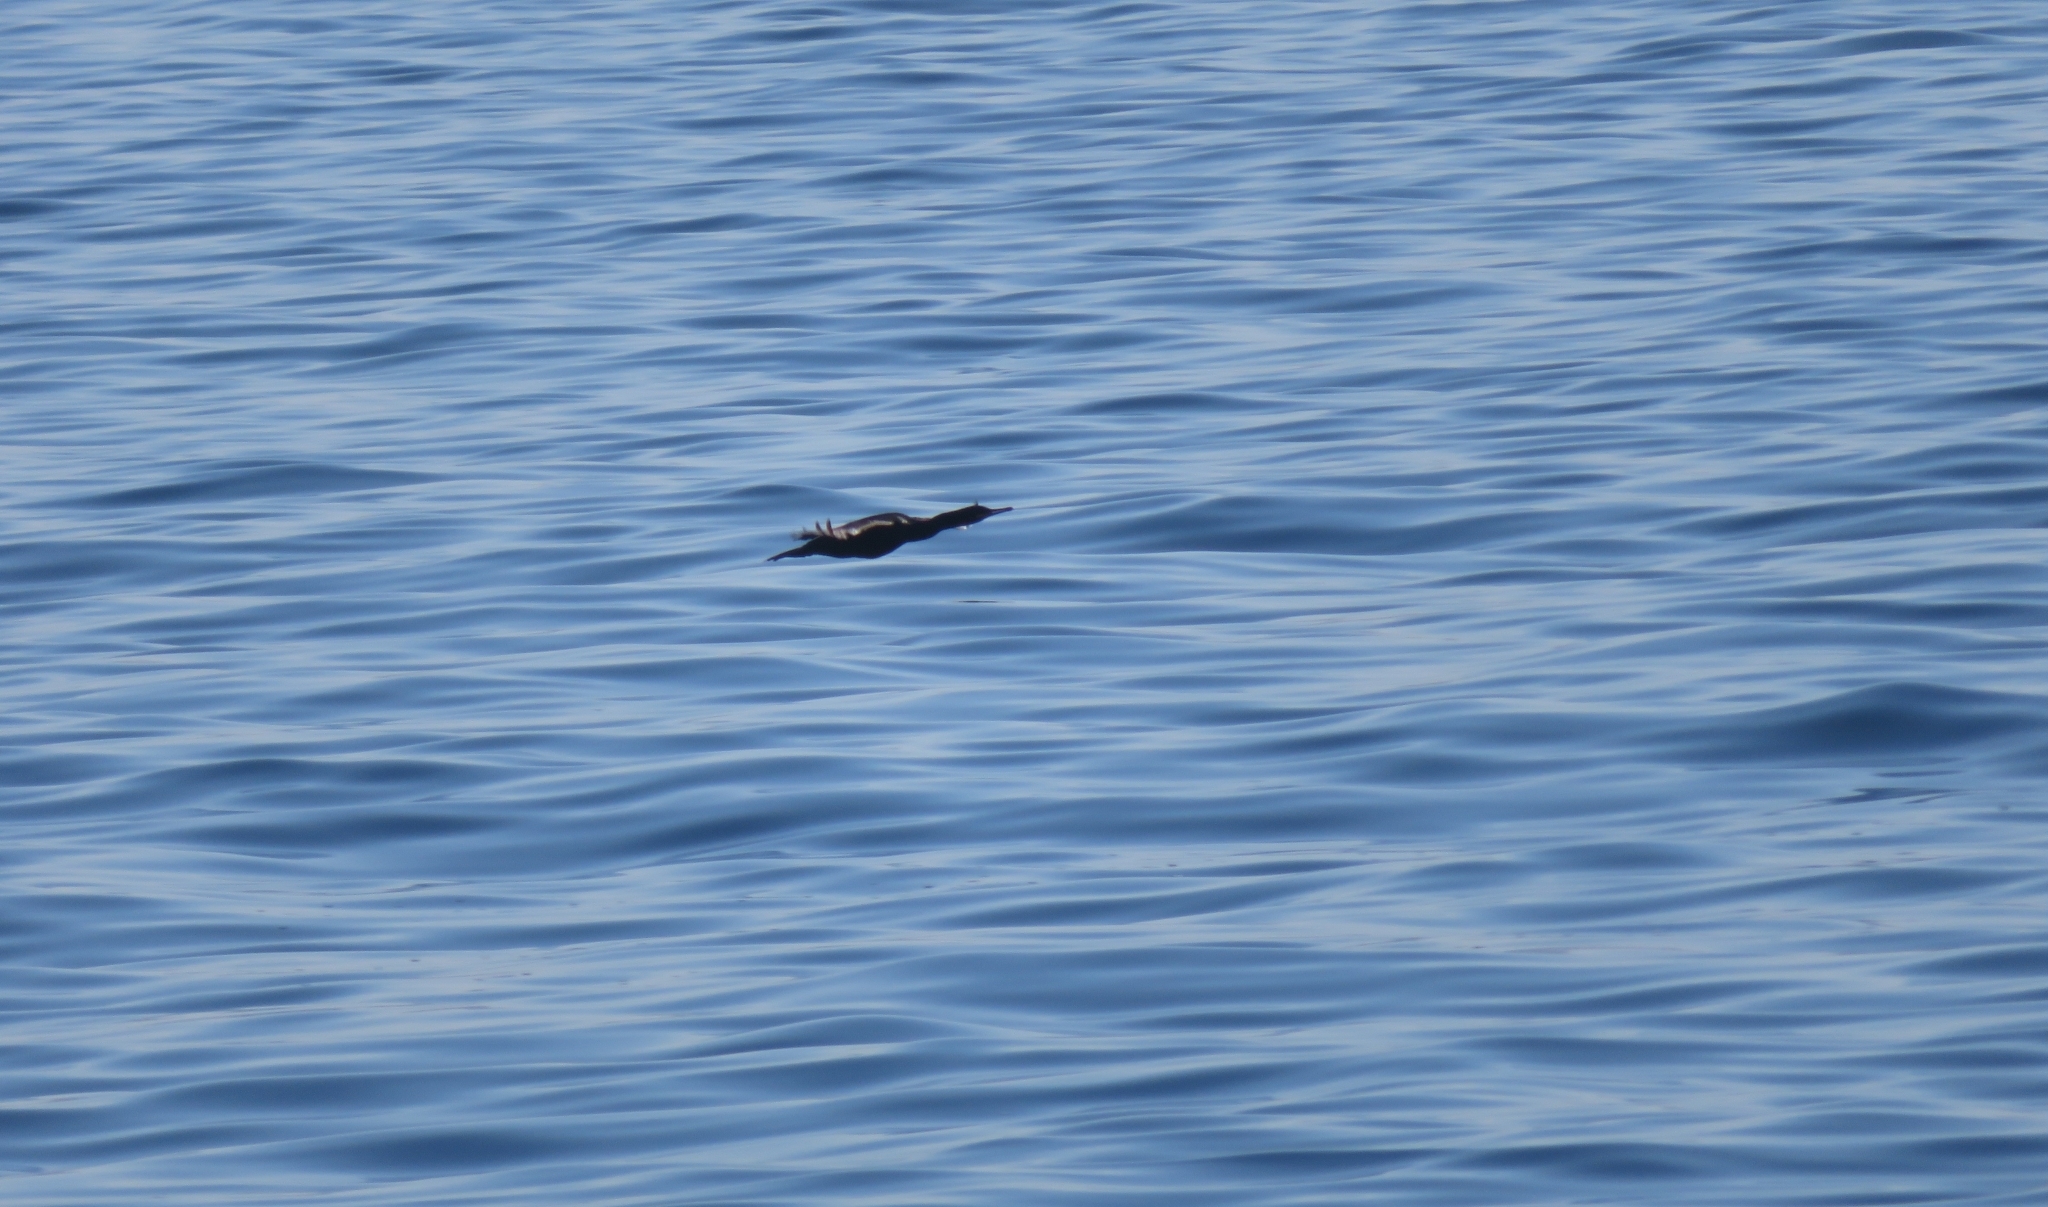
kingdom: Animalia
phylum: Chordata
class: Aves
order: Suliformes
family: Phalacrocoracidae
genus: Phalacrocorax
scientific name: Phalacrocorax aristotelis
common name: European shag
